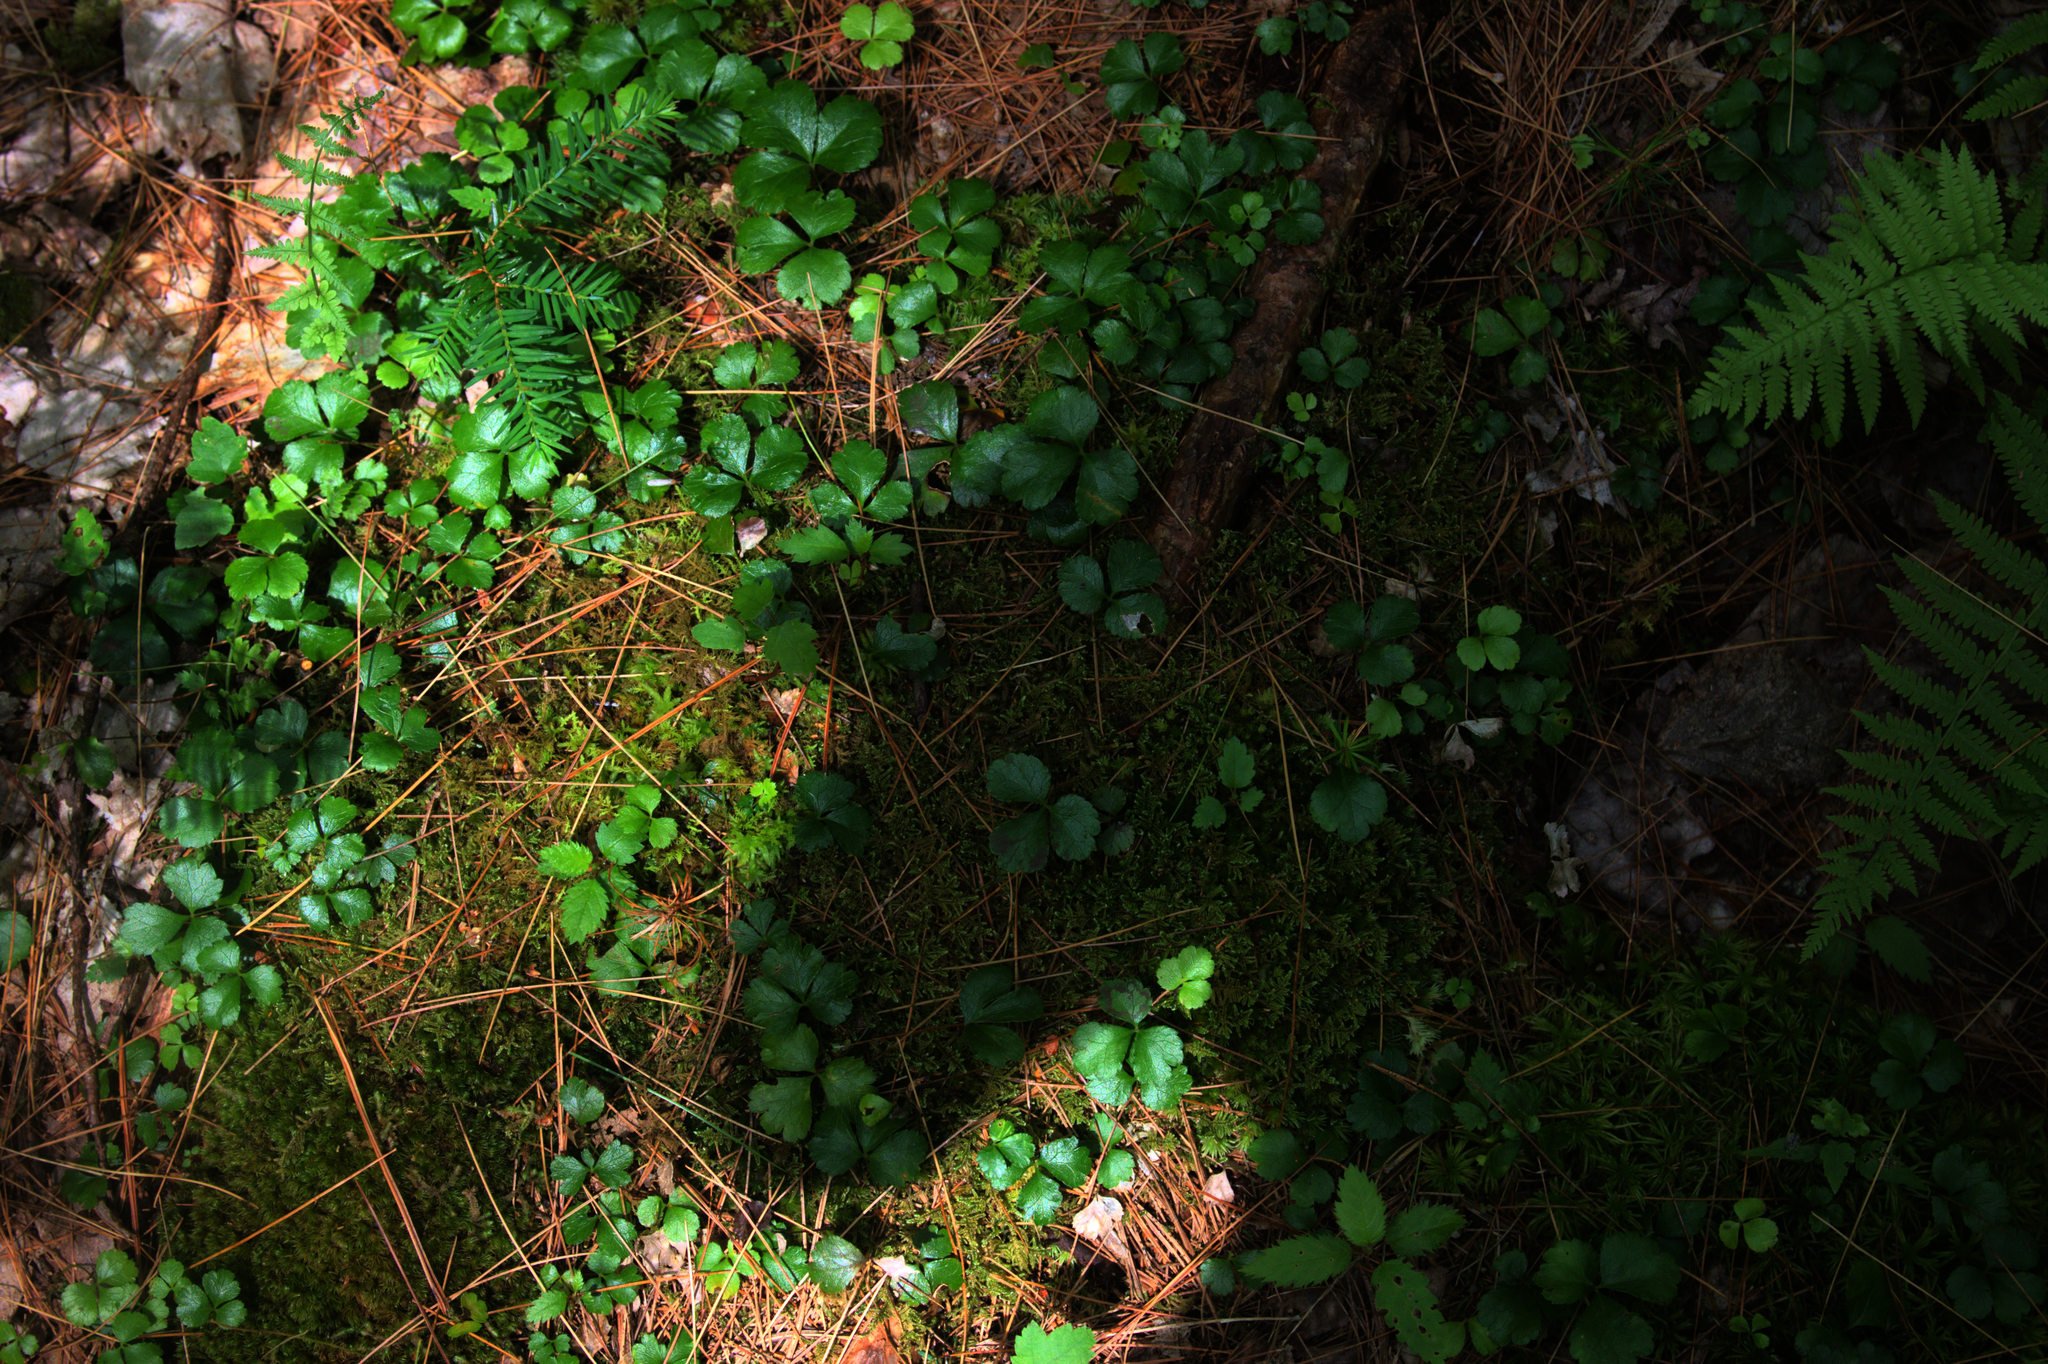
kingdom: Plantae
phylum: Tracheophyta
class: Magnoliopsida
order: Ranunculales
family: Ranunculaceae
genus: Coptis
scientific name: Coptis trifolia
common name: Canker-root
